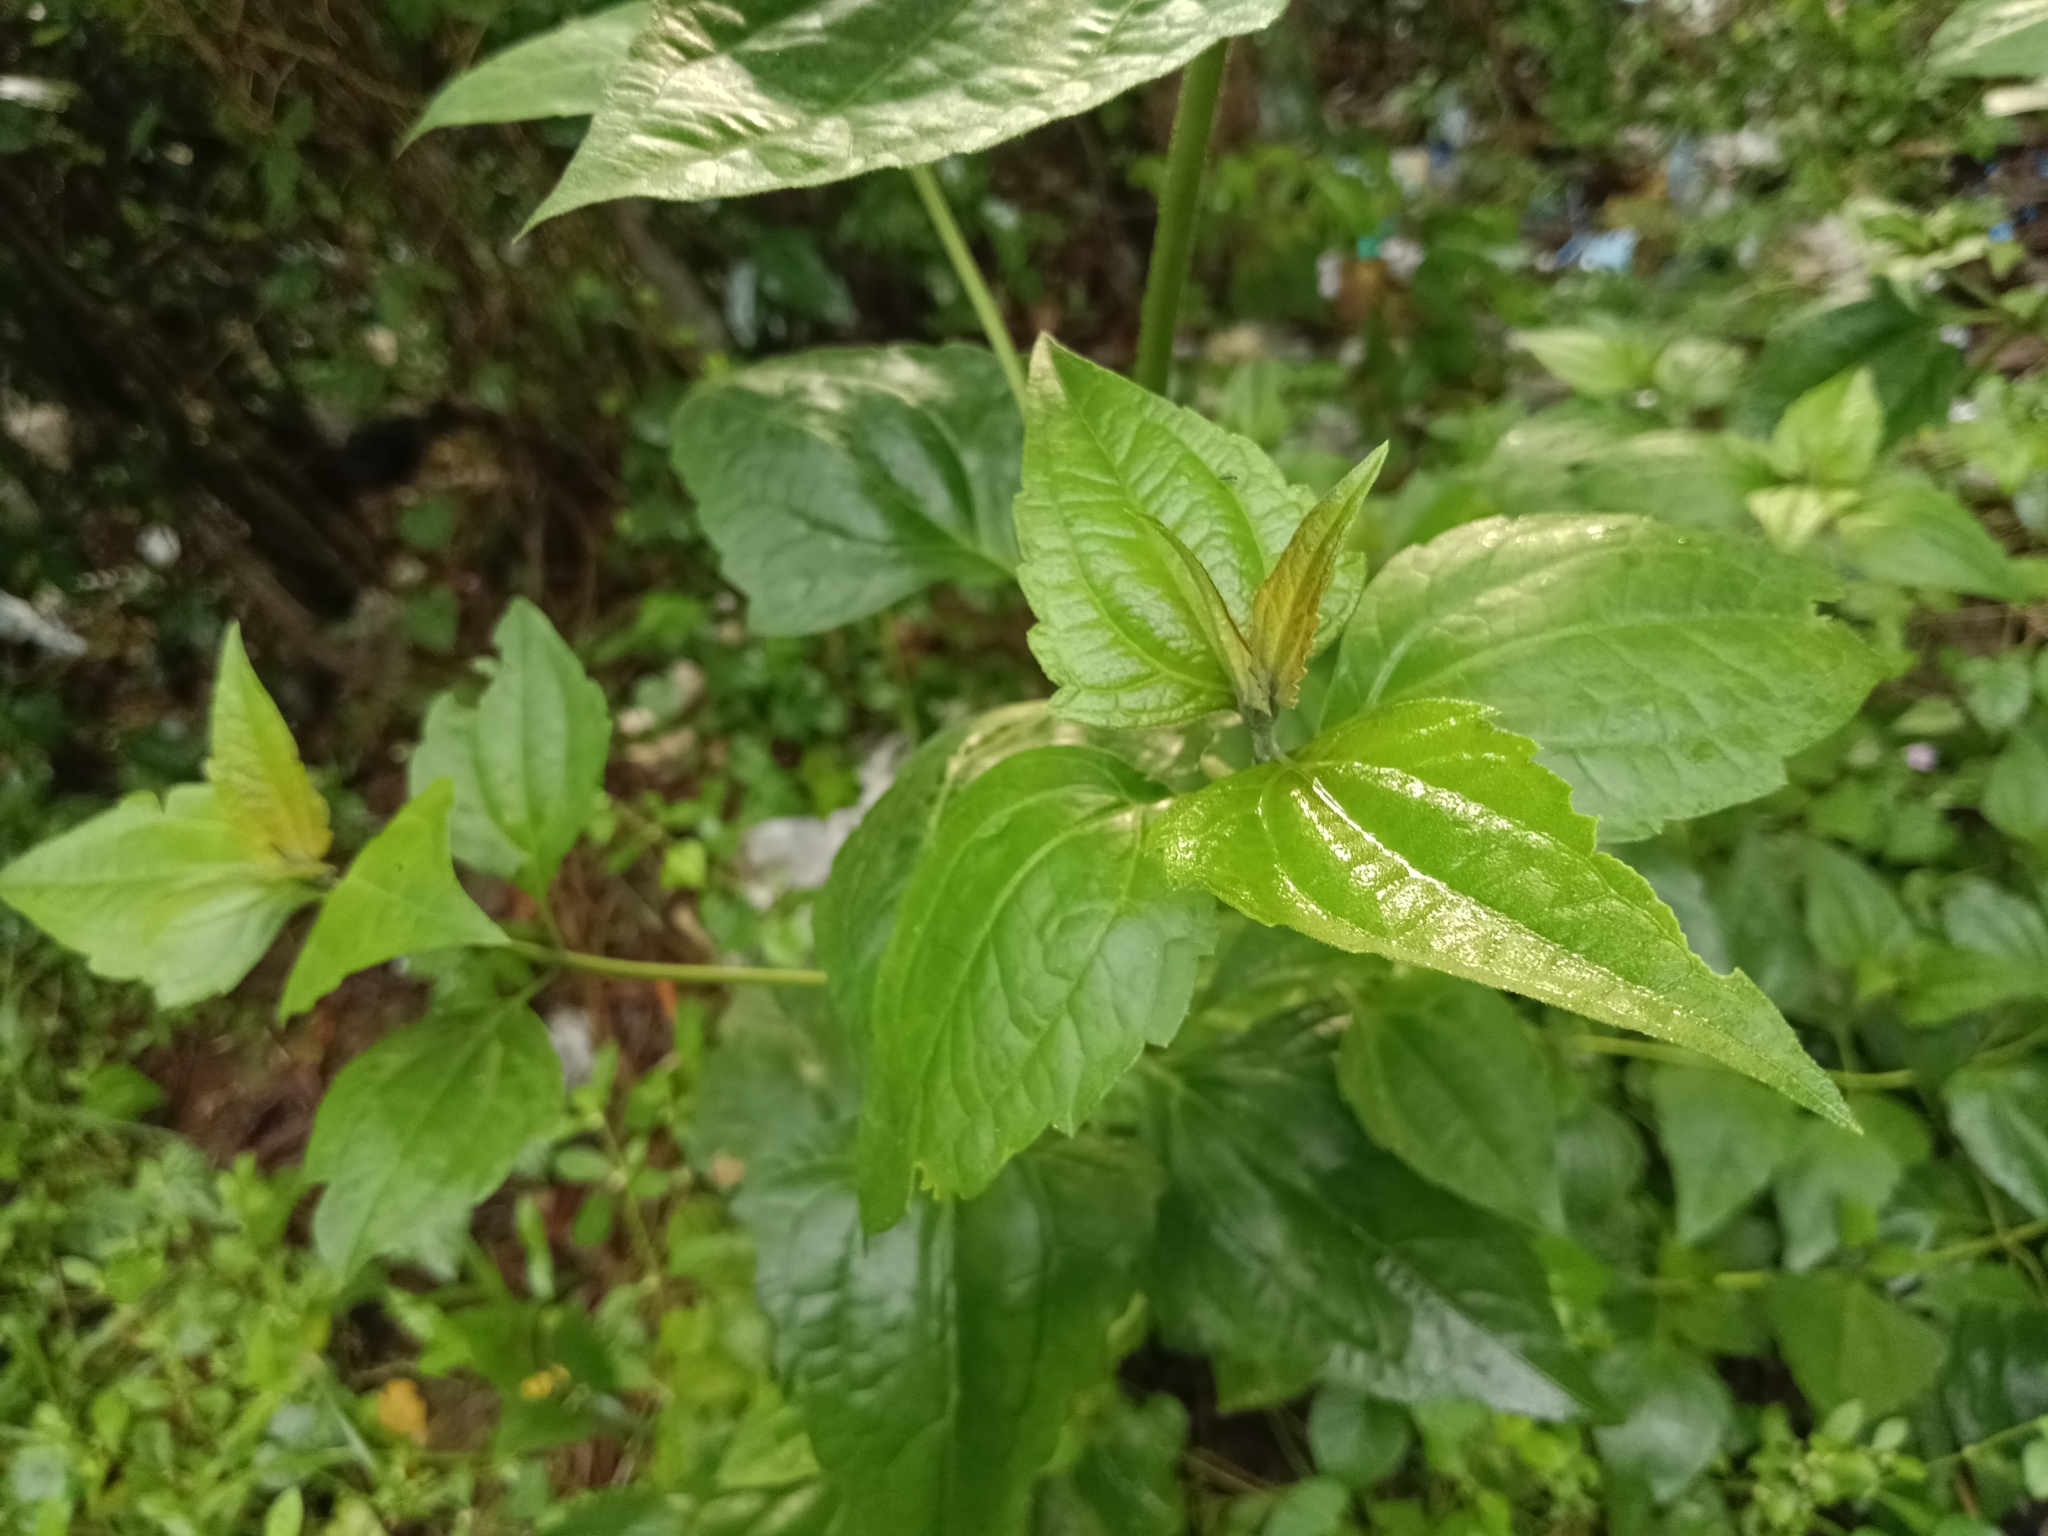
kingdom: Plantae
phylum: Tracheophyta
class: Magnoliopsida
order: Asterales
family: Asteraceae
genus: Chromolaena
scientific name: Chromolaena odorata
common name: Siamweed
